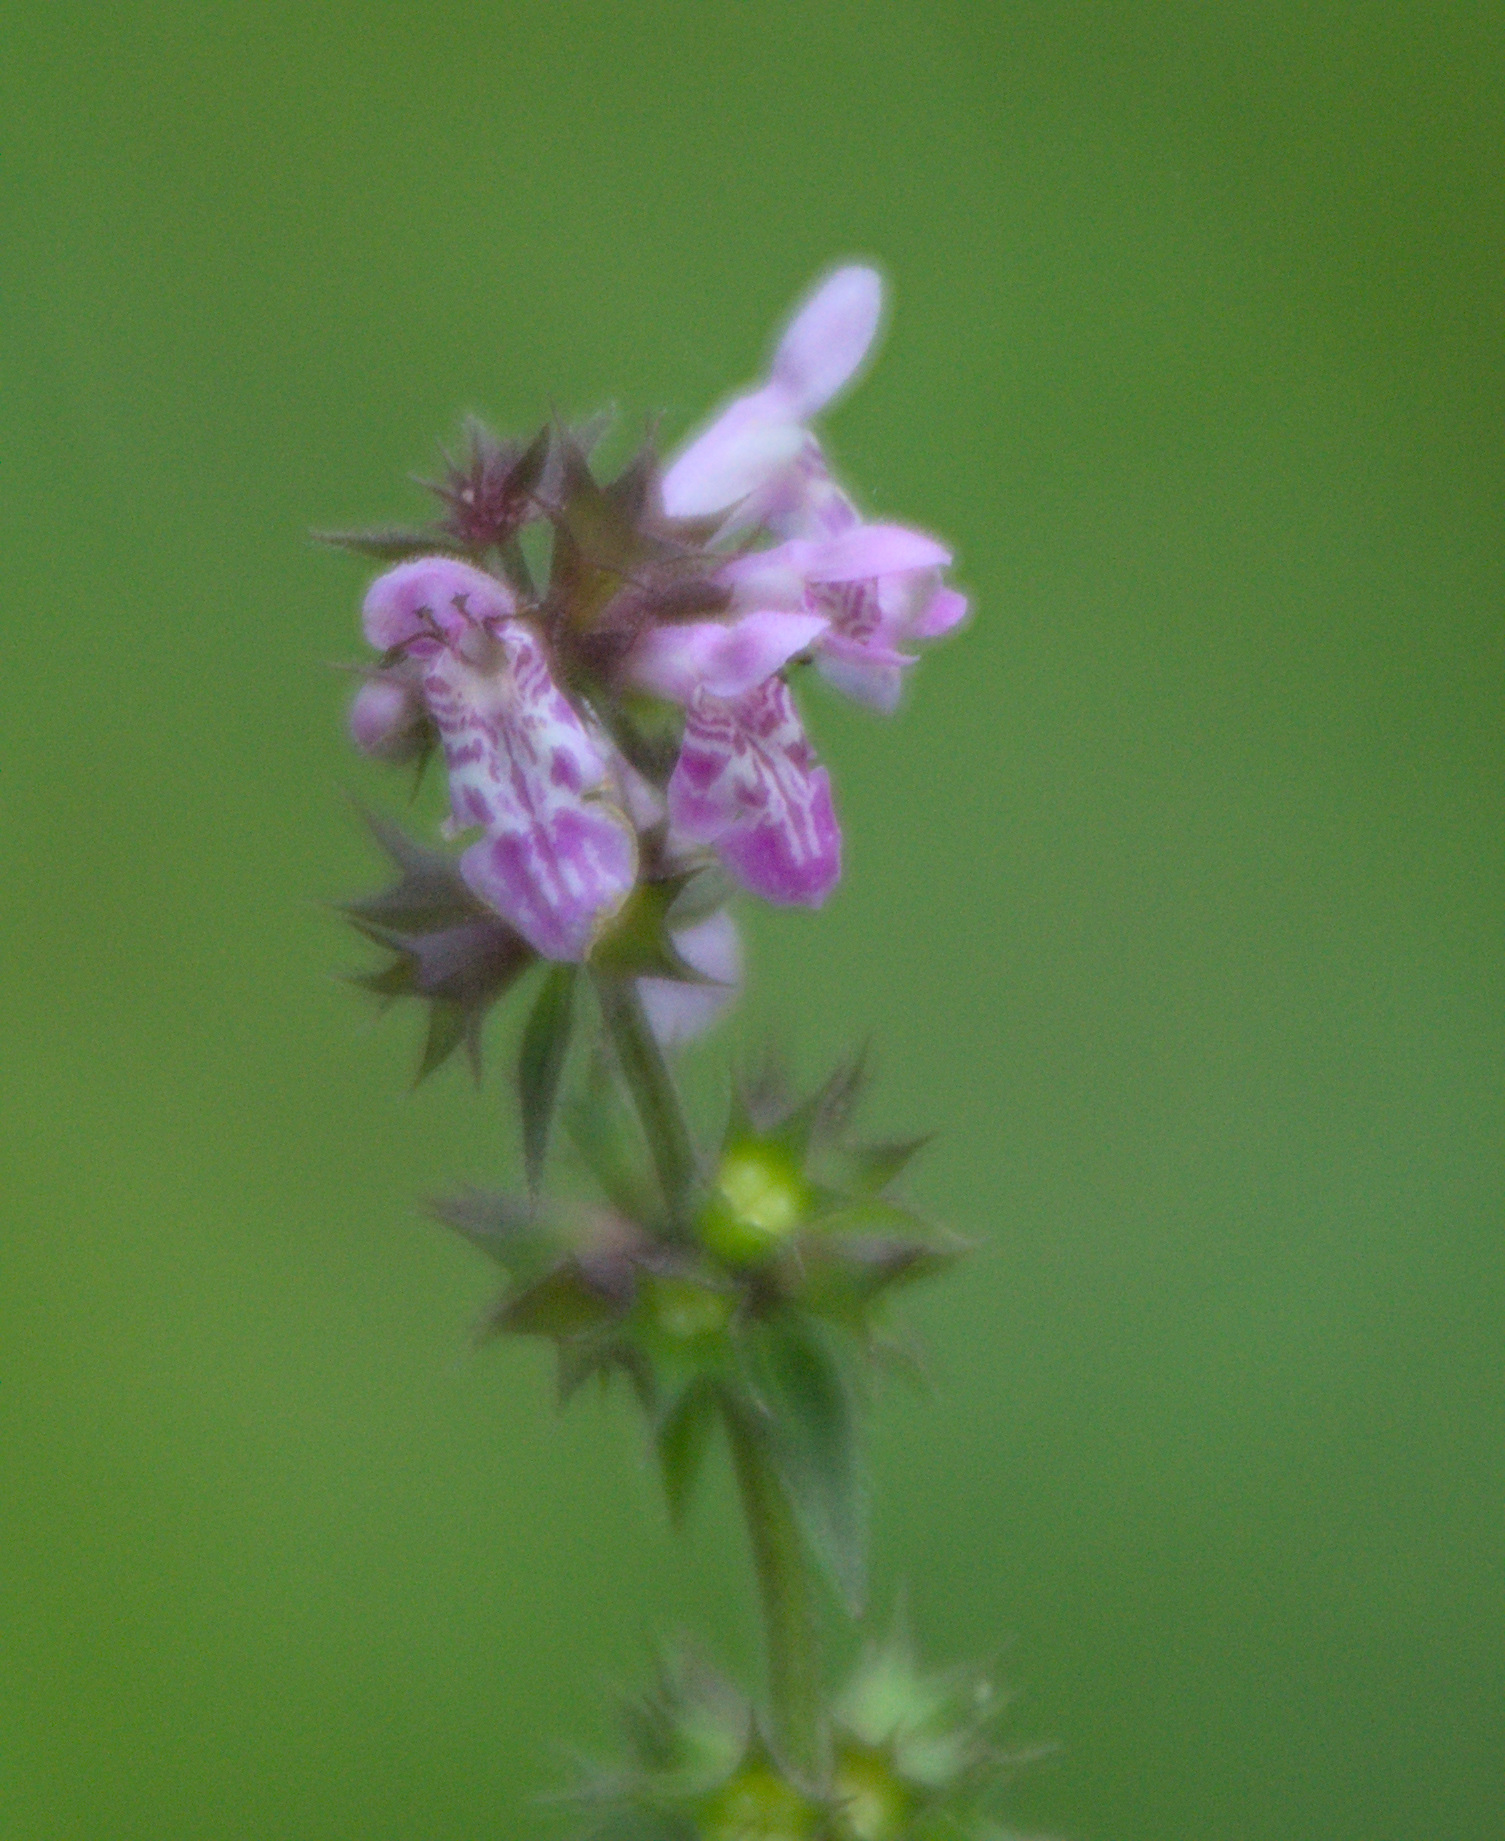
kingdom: Plantae
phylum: Tracheophyta
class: Magnoliopsida
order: Lamiales
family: Lamiaceae
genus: Stachys
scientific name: Stachys palustris
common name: Marsh woundwort
